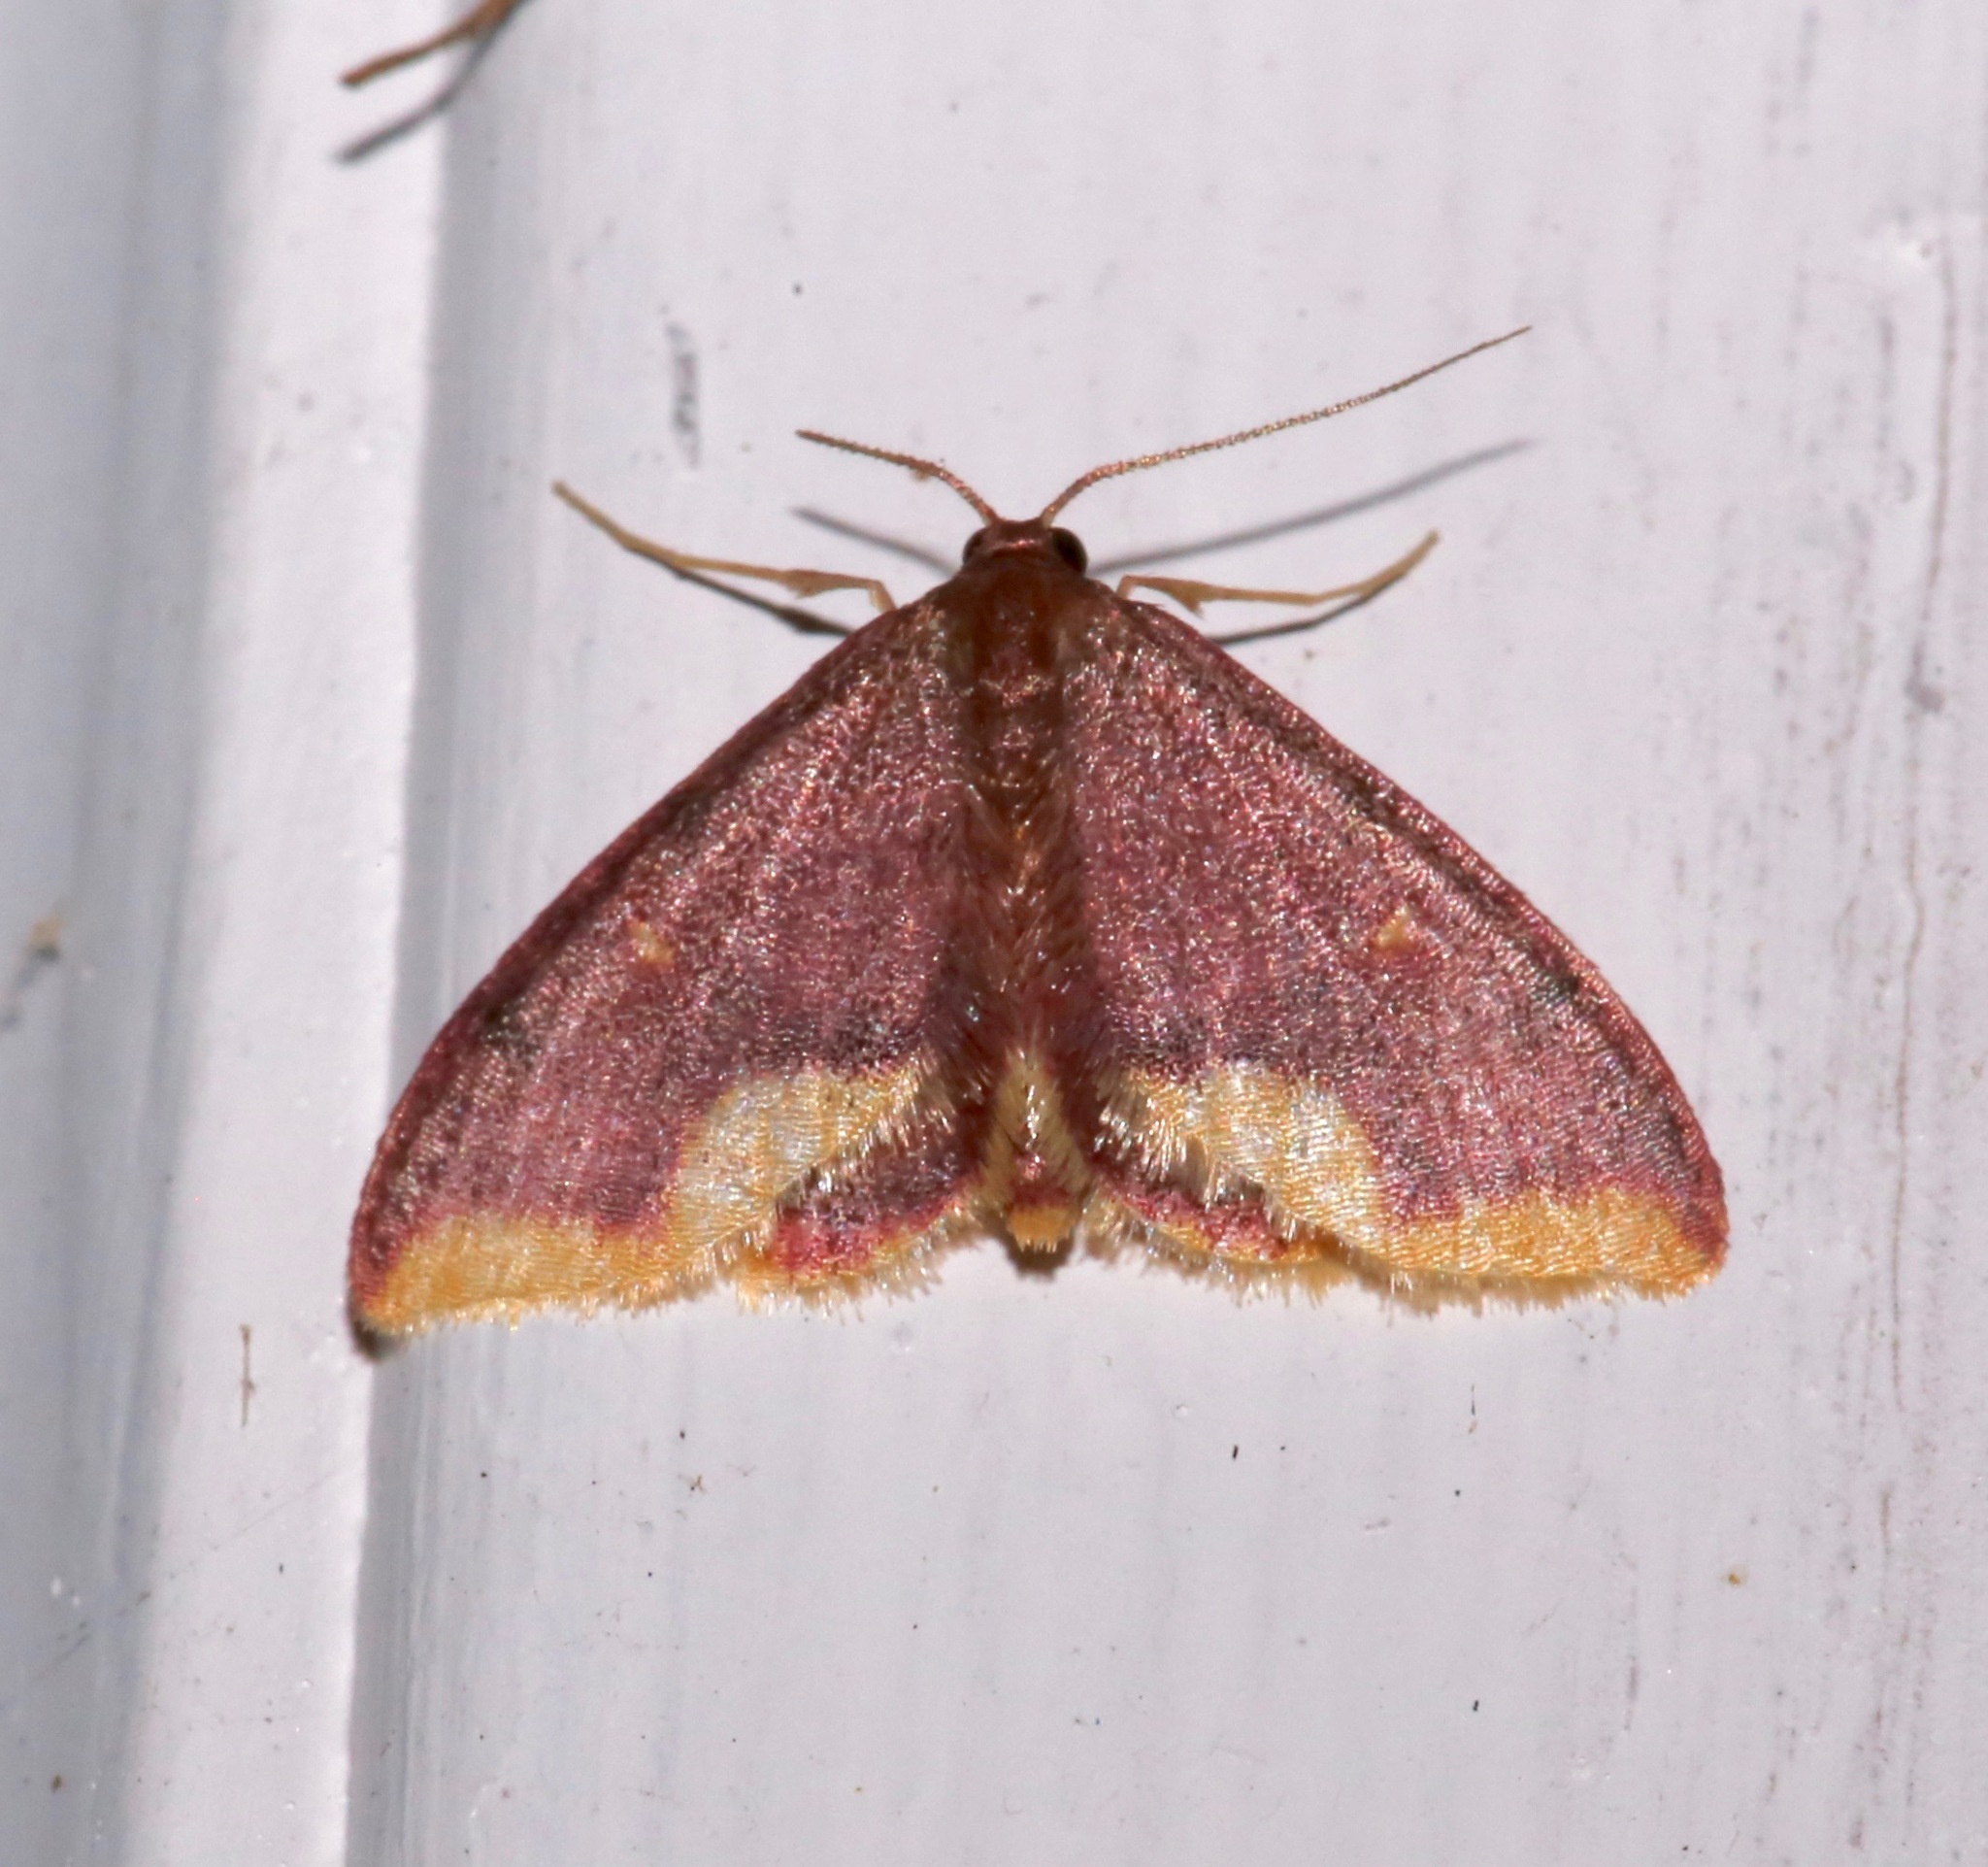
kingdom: Animalia
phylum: Arthropoda
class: Insecta
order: Lepidoptera
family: Geometridae
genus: Lophosis
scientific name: Lophosis labeculata
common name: Stained lophosis moth
